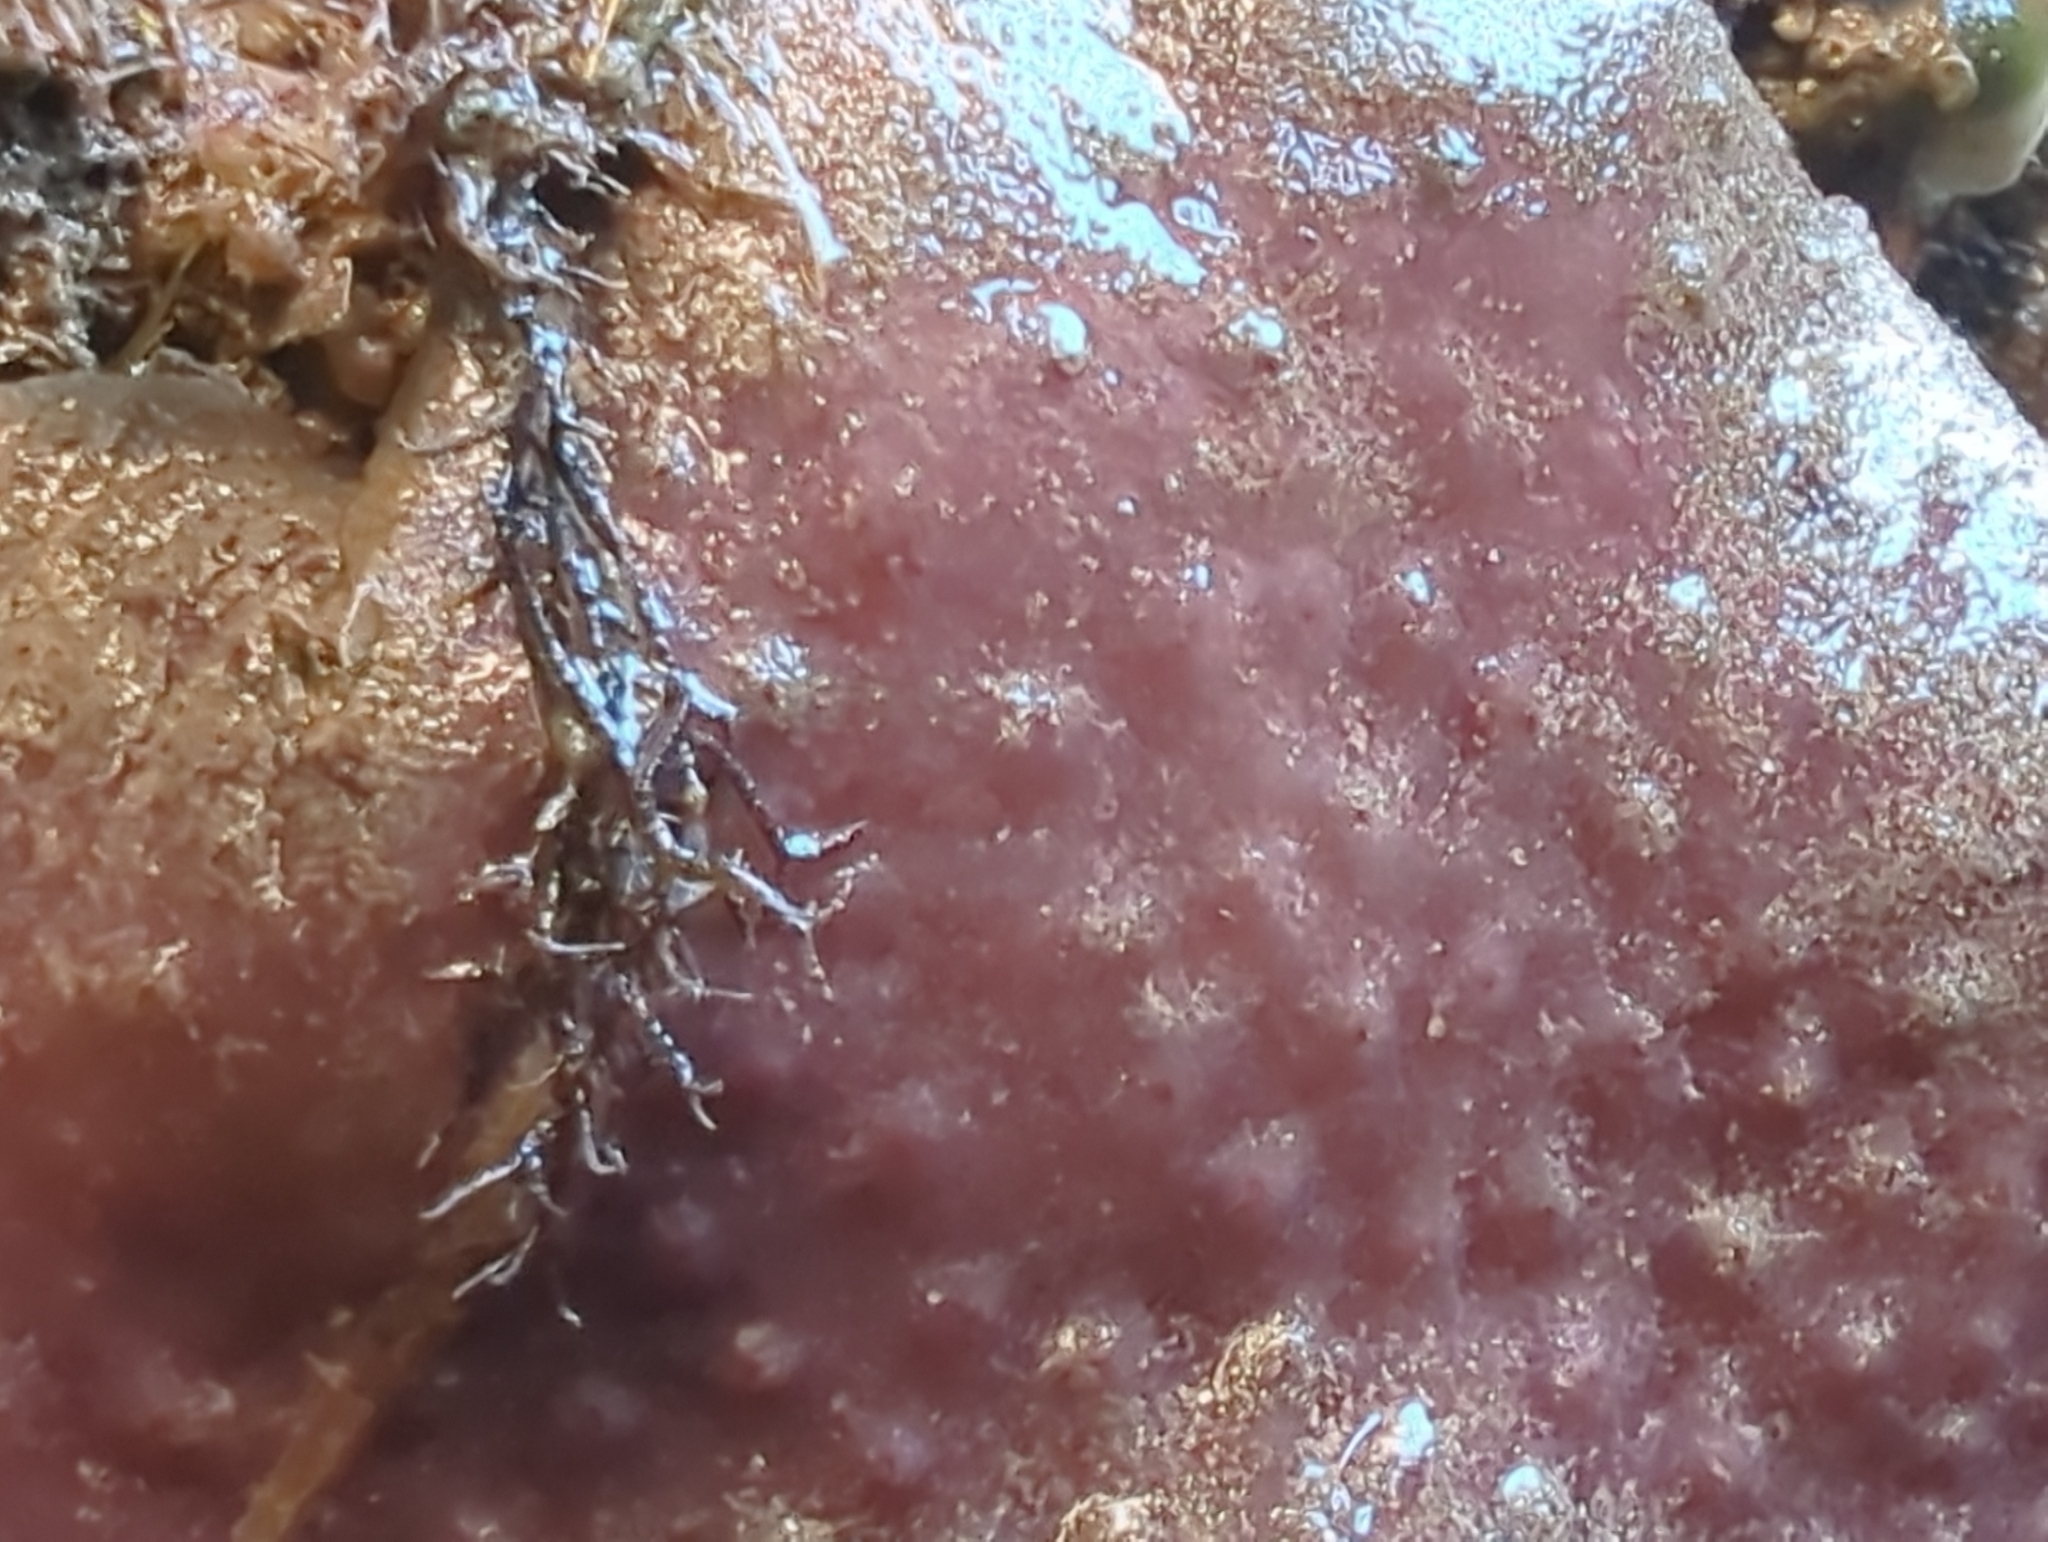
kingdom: Animalia
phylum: Chordata
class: Ascidiacea
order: Aplousobranchia
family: Polycitoridae
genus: Eudistoma
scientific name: Eudistoma psammion
